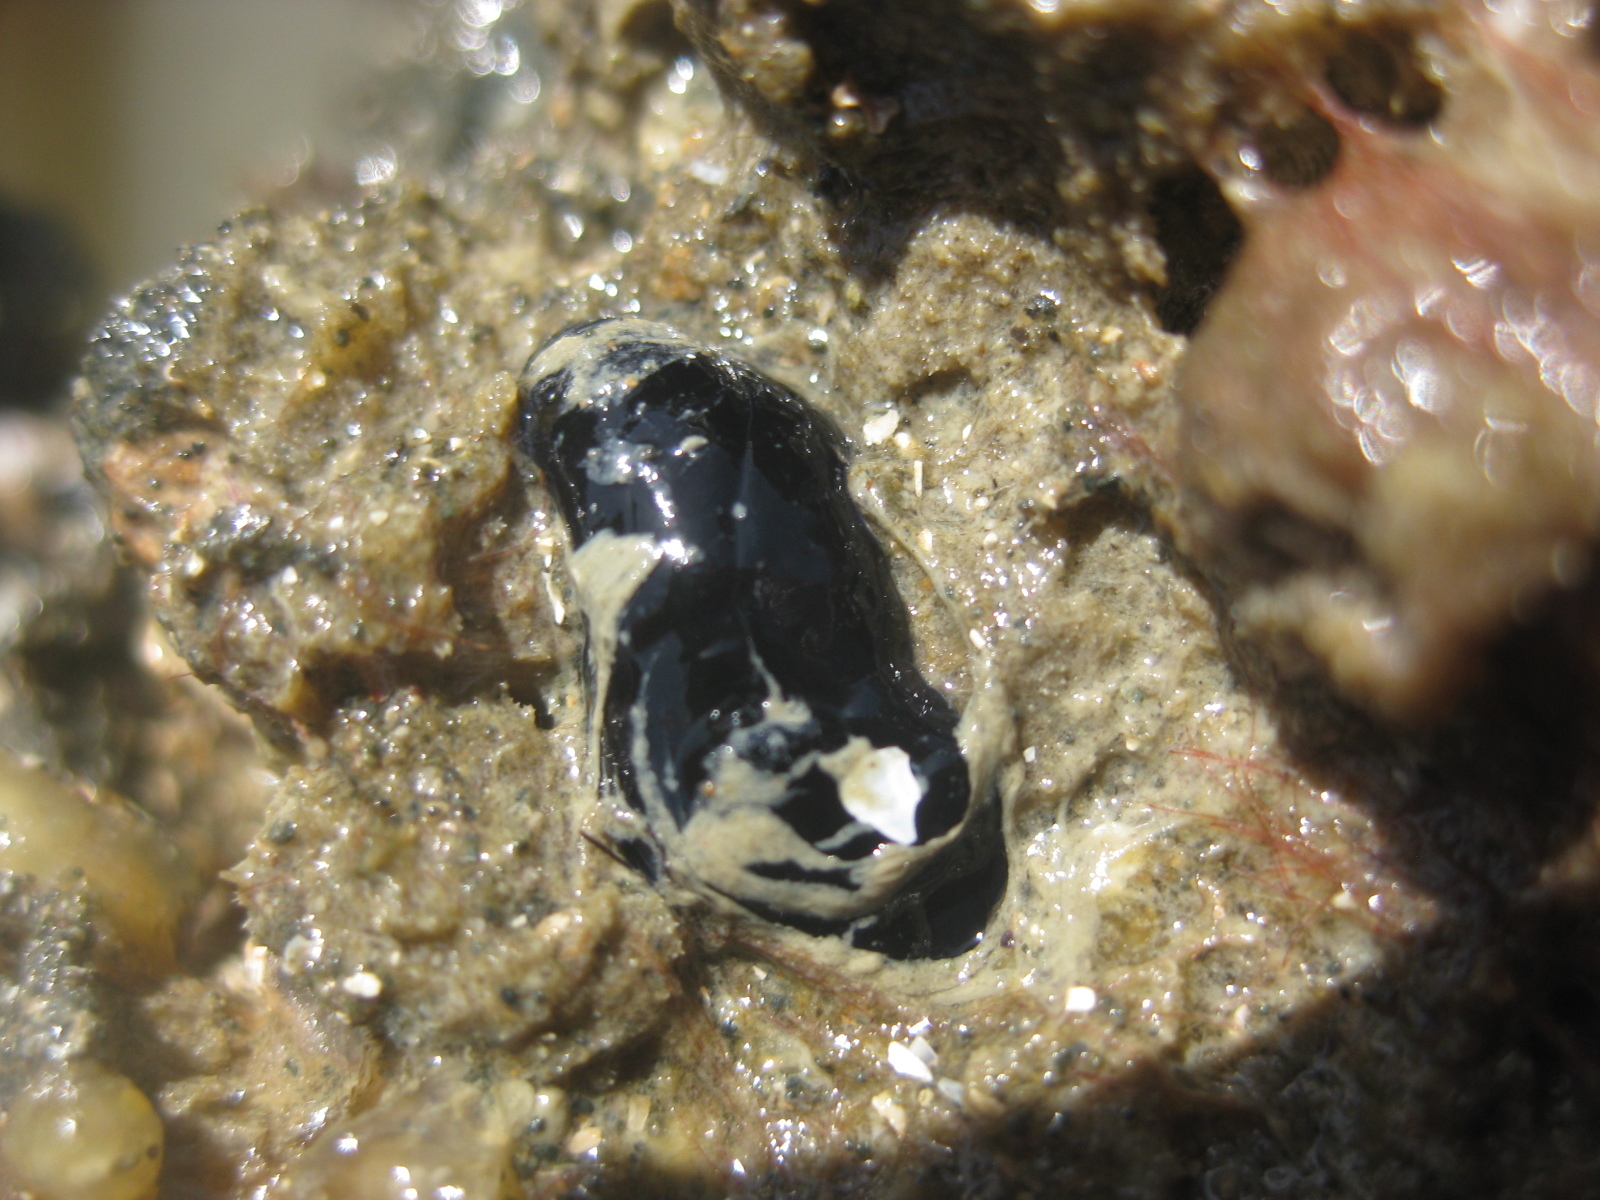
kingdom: Animalia
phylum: Mollusca
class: Gastropoda
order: Cephalaspidea
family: Aglajidae
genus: Melanochlamys
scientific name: Melanochlamys cylindrica
